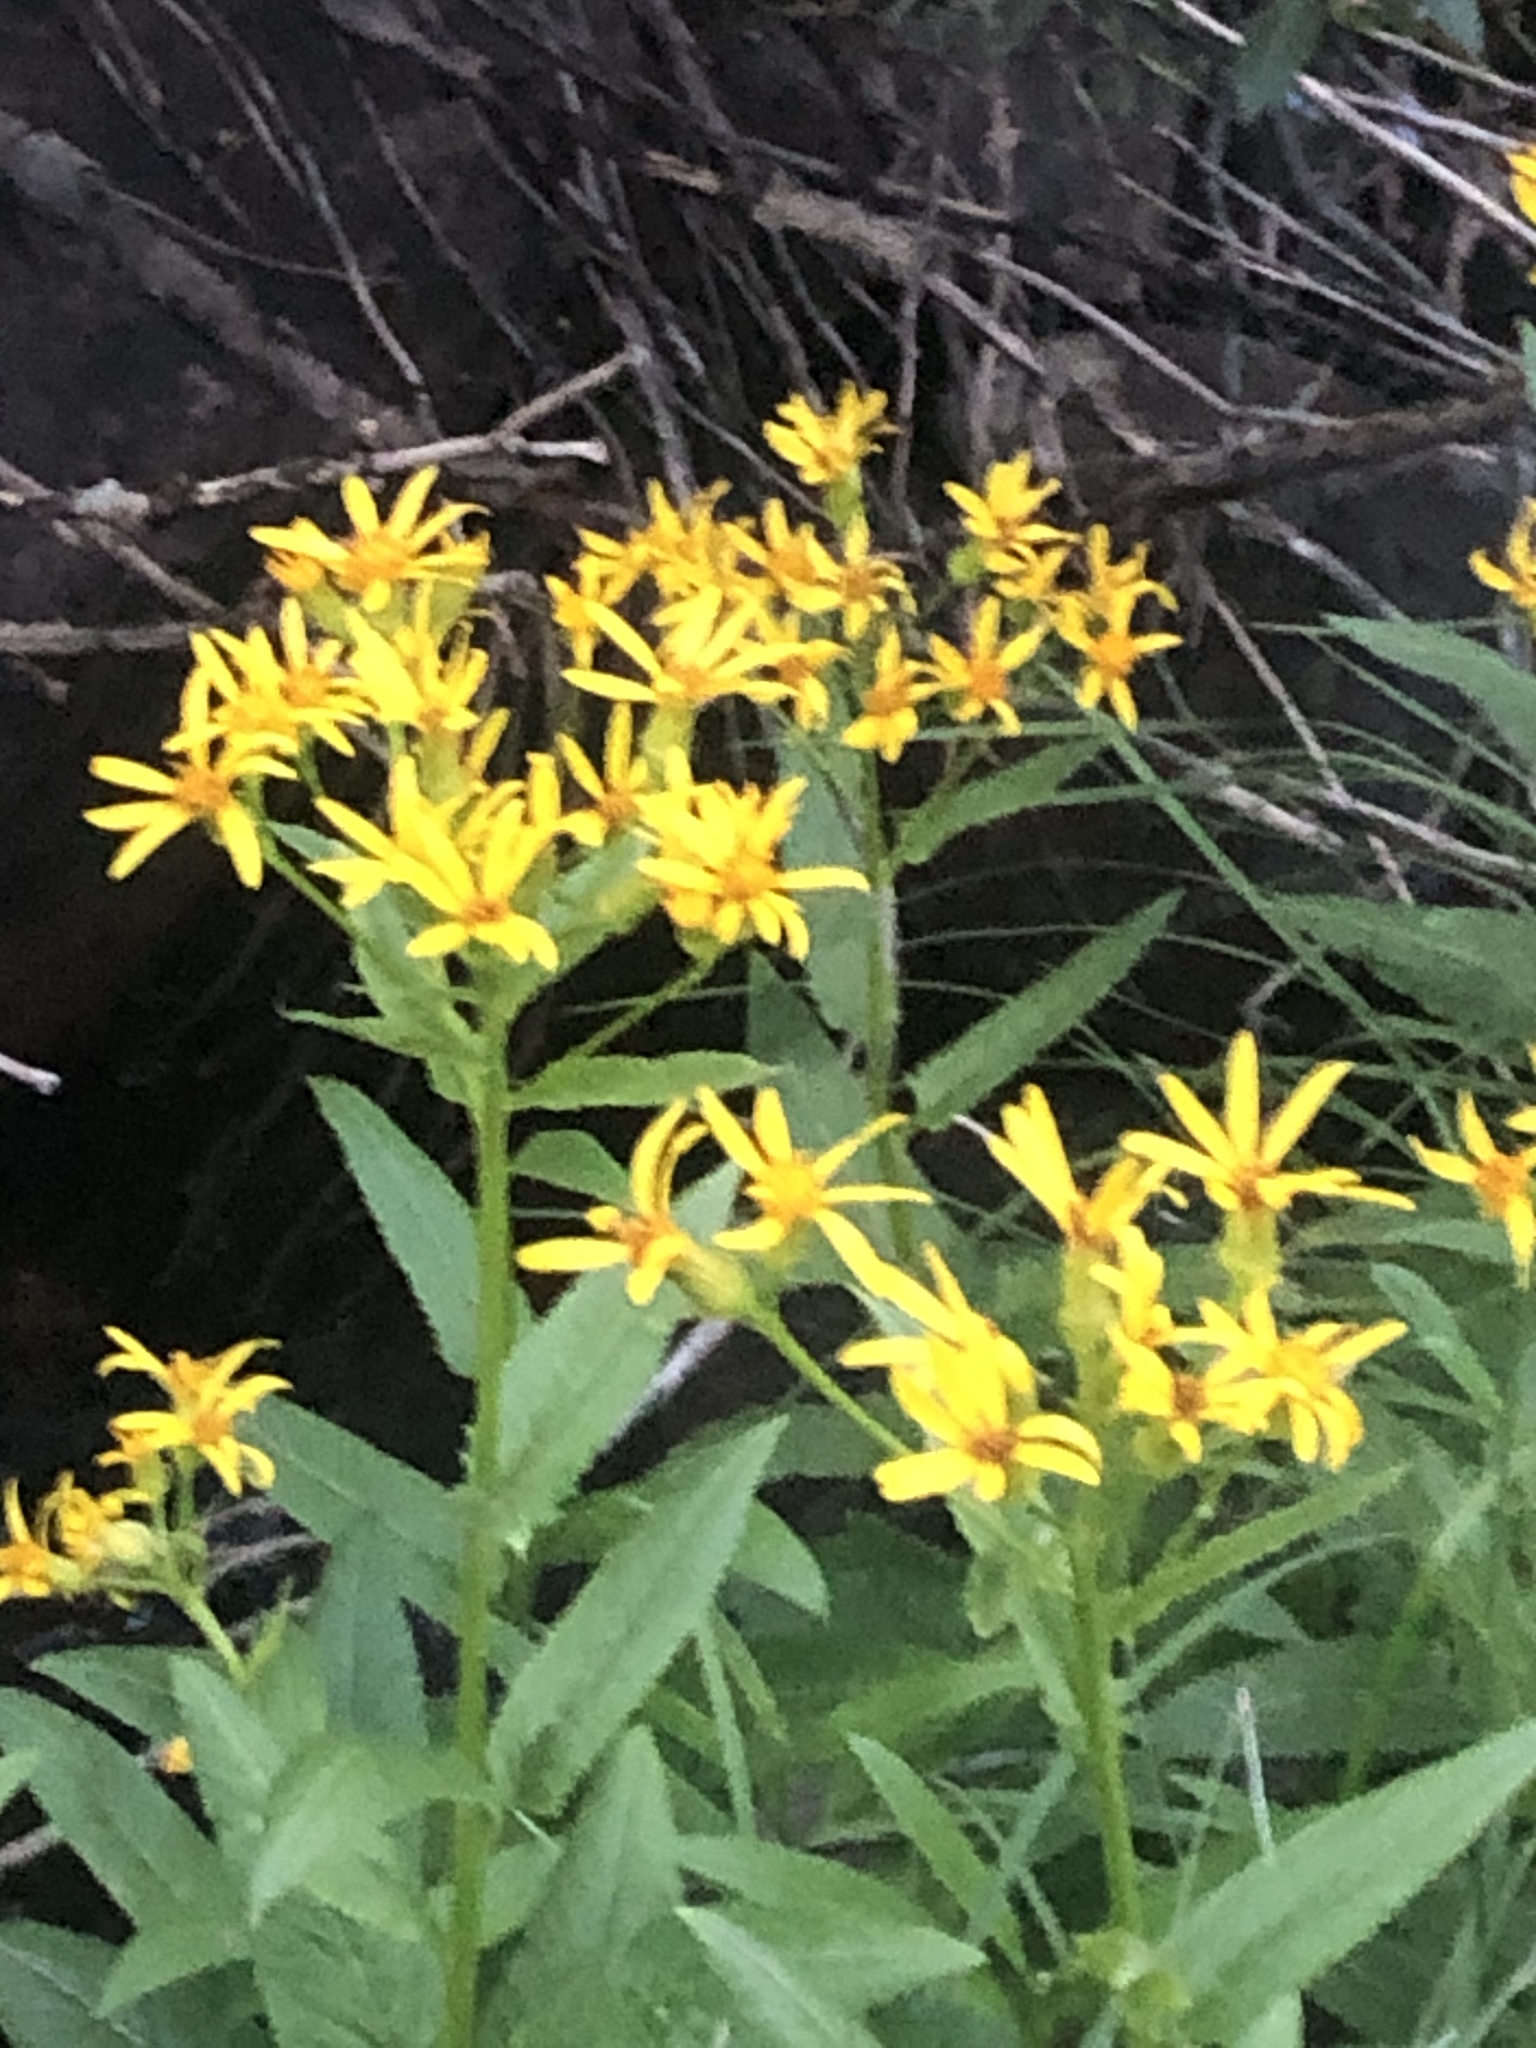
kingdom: Plantae
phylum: Tracheophyta
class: Magnoliopsida
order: Asterales
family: Asteraceae
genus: Senecio
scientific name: Senecio triangularis
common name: Arrowleaf butterweed
